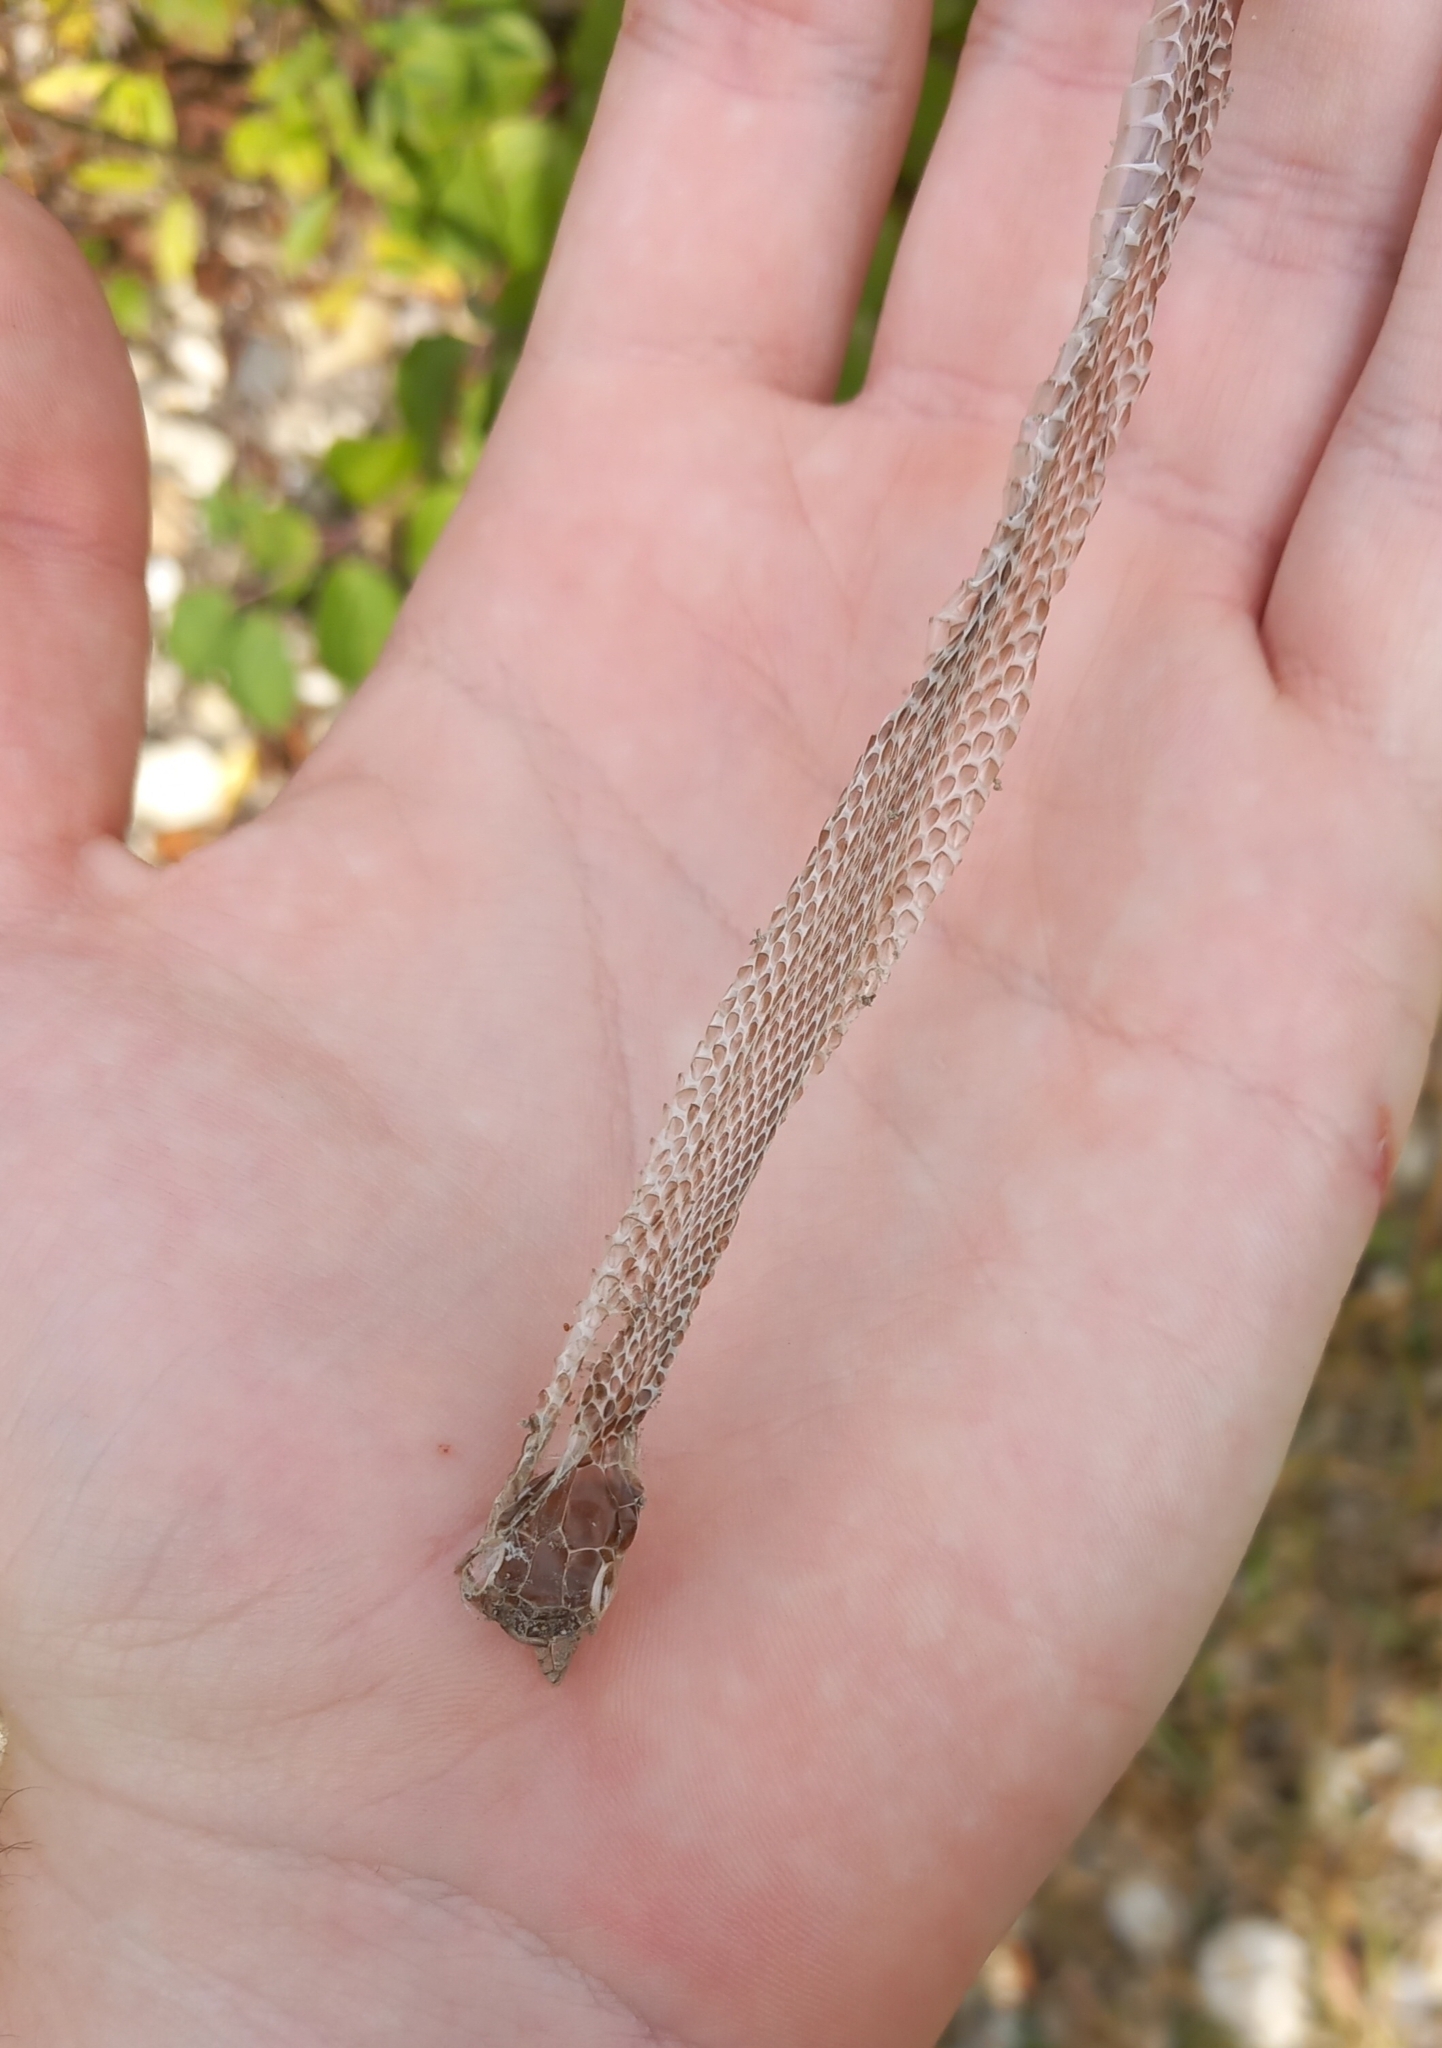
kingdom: Animalia
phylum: Chordata
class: Squamata
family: Colubridae
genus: Natrix
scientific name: Natrix natrix
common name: Grass snake
